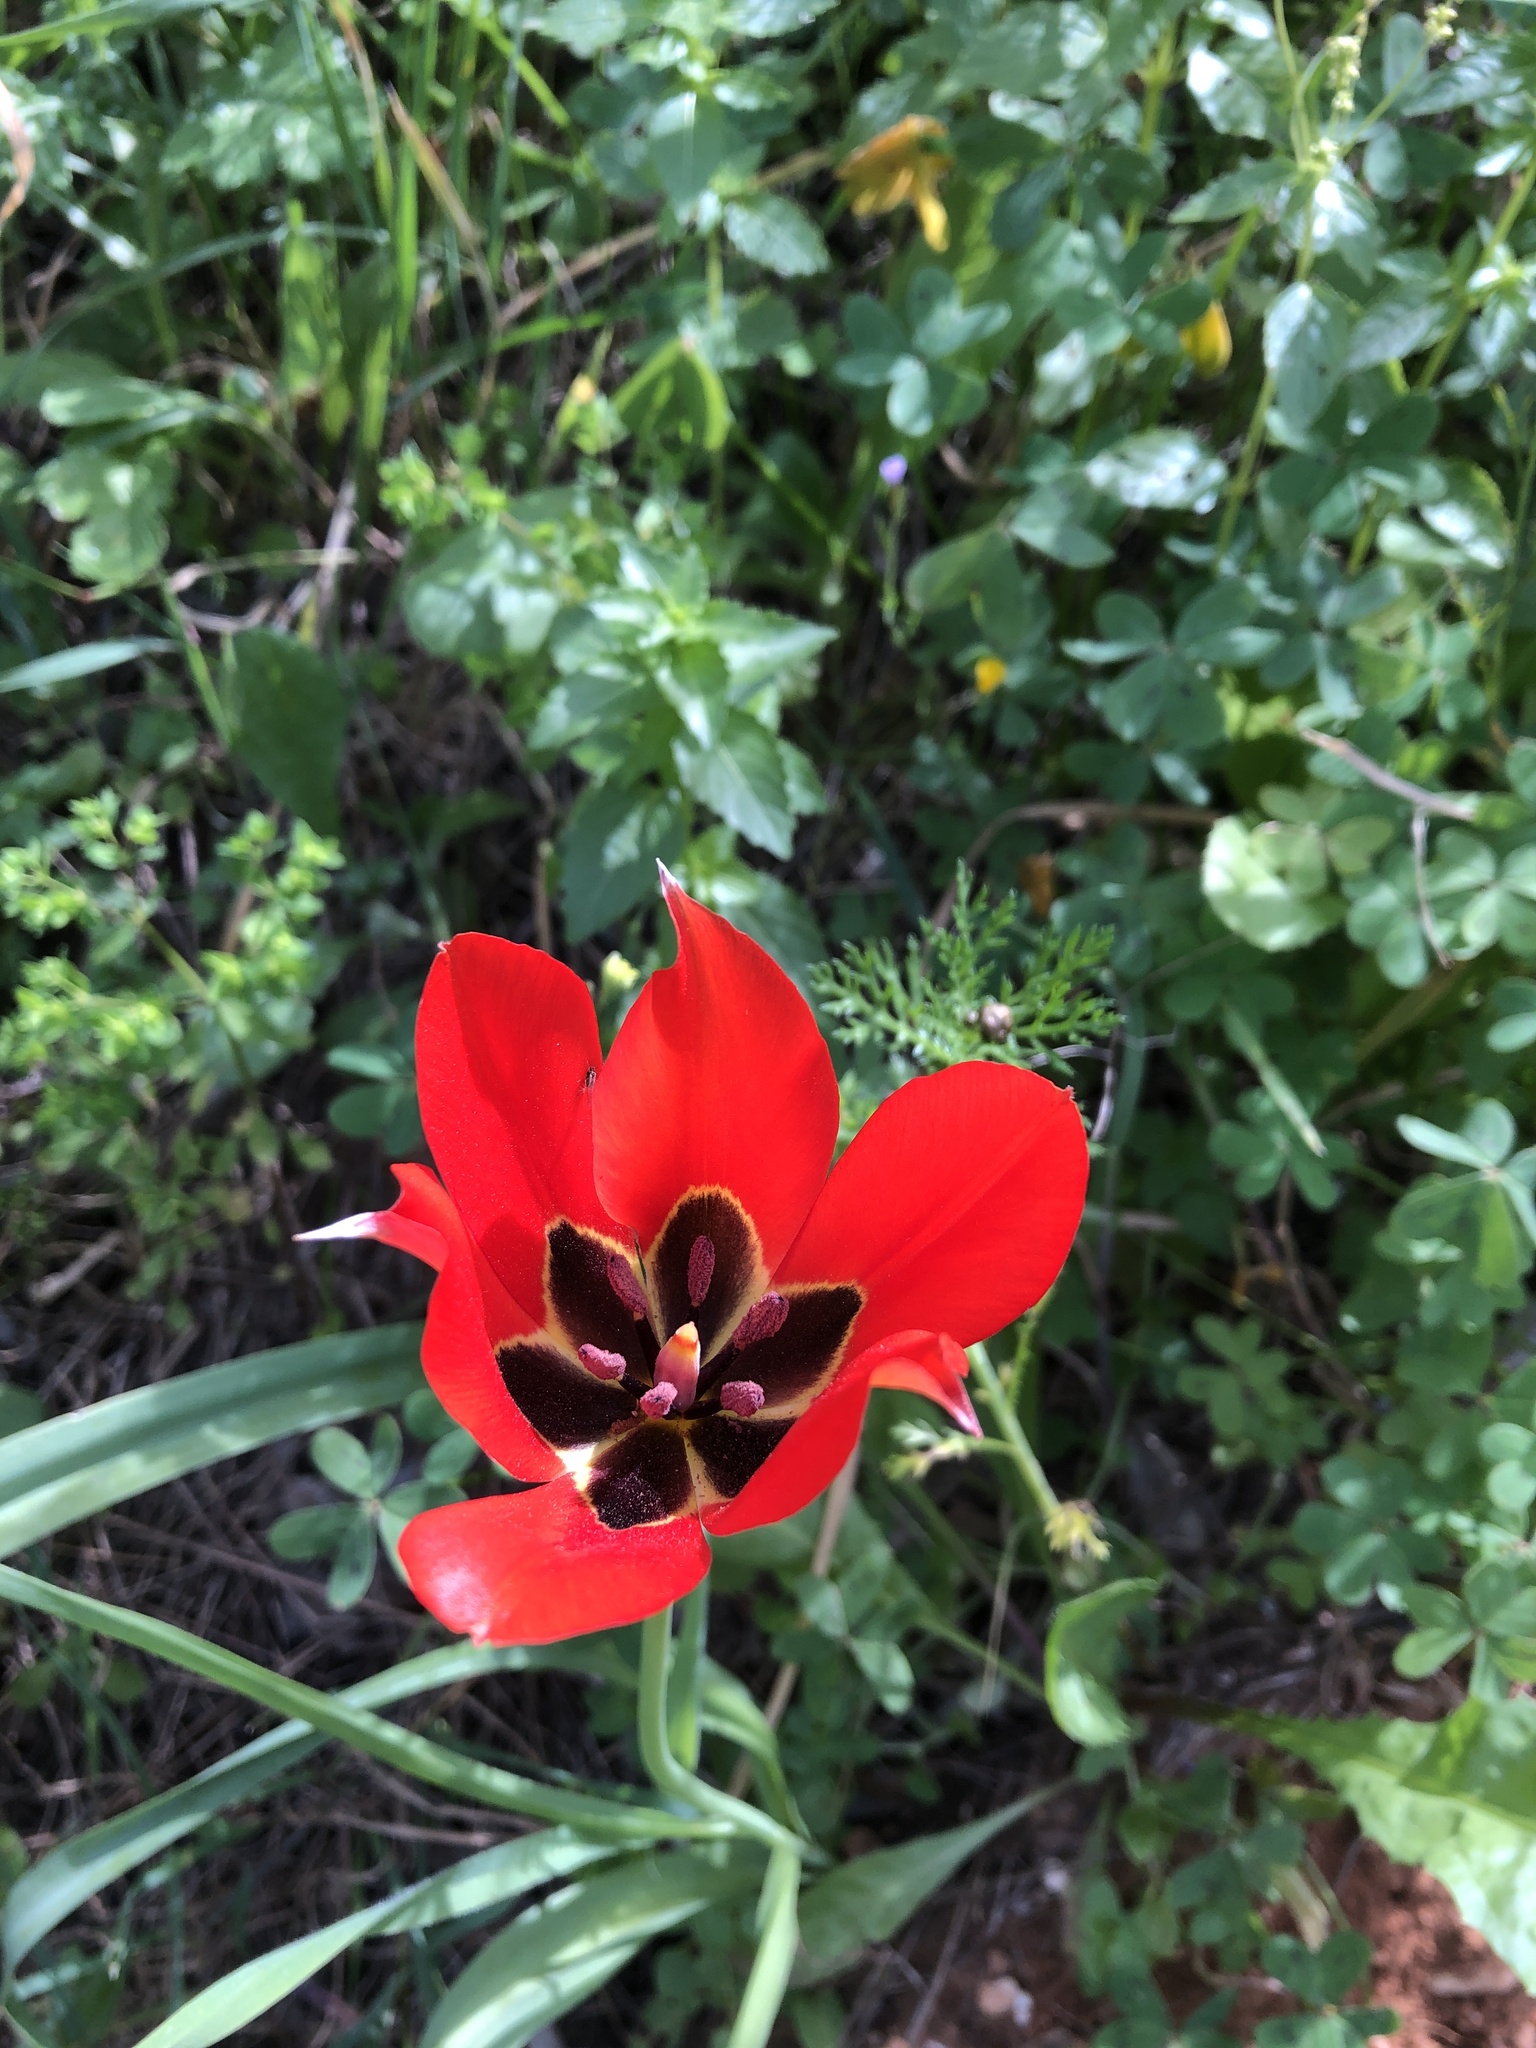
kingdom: Plantae
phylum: Tracheophyta
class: Liliopsida
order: Liliales
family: Liliaceae
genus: Tulipa
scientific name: Tulipa agenensis
